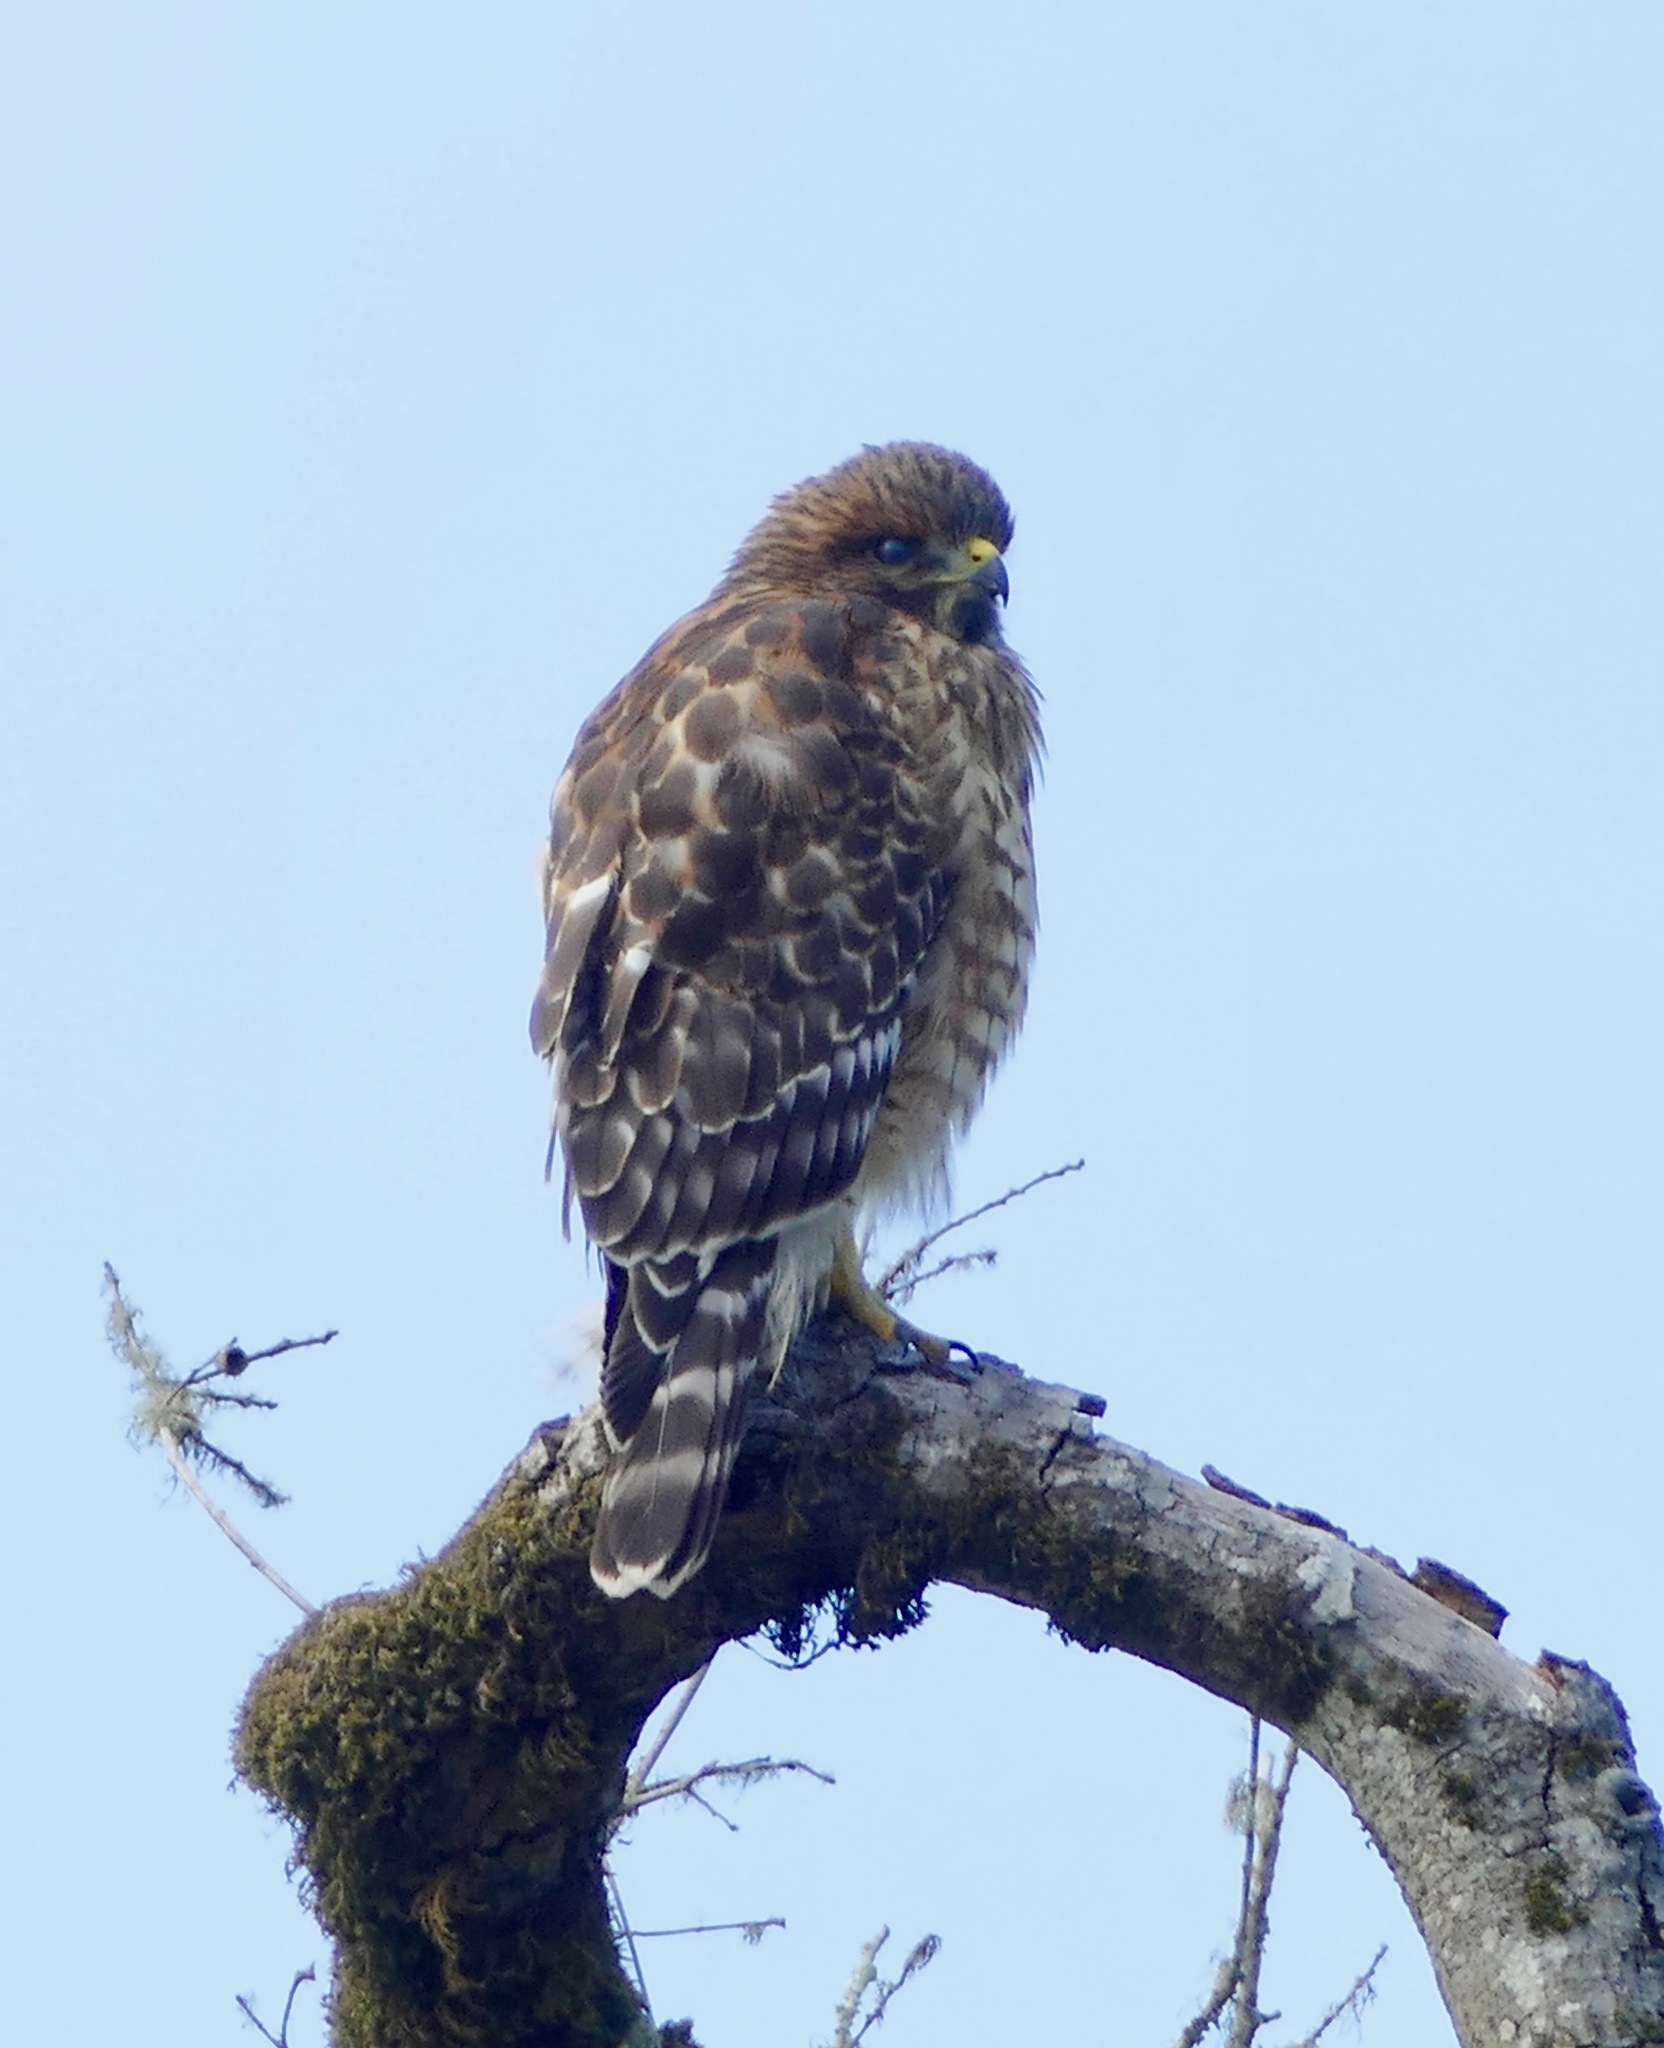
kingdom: Animalia
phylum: Chordata
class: Aves
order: Accipitriformes
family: Accipitridae
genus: Buteo
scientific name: Buteo lineatus
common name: Red-shouldered hawk
